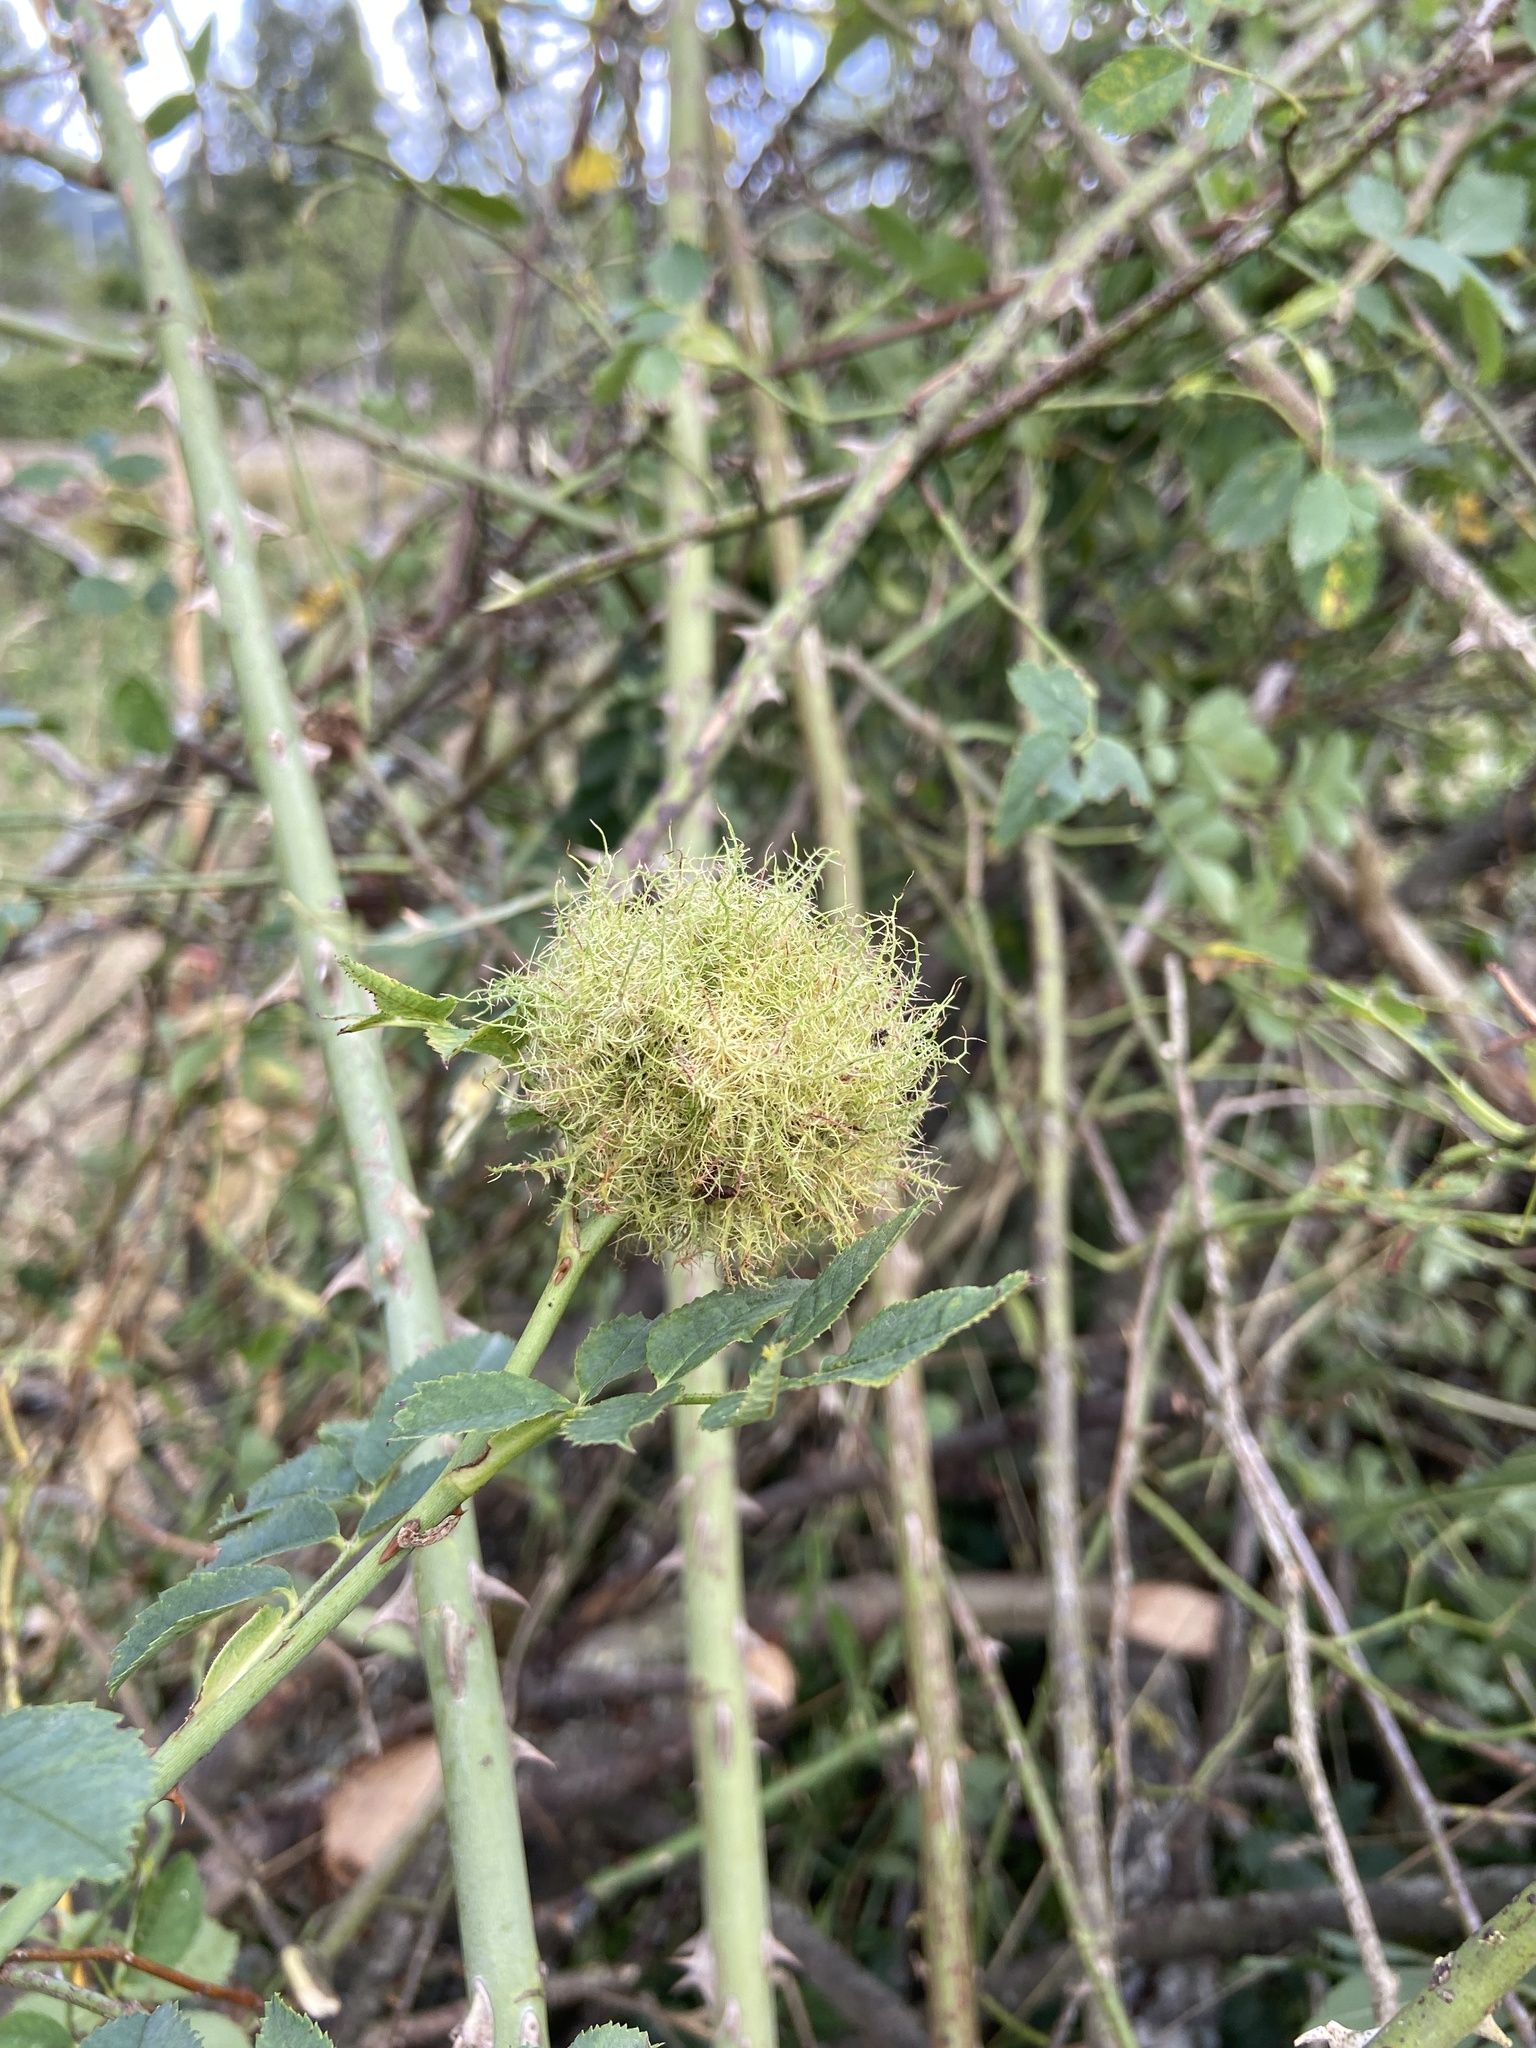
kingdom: Animalia
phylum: Arthropoda
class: Insecta
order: Hymenoptera
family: Cynipidae
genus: Diplolepis
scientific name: Diplolepis rosae
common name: Bedeguar gall
